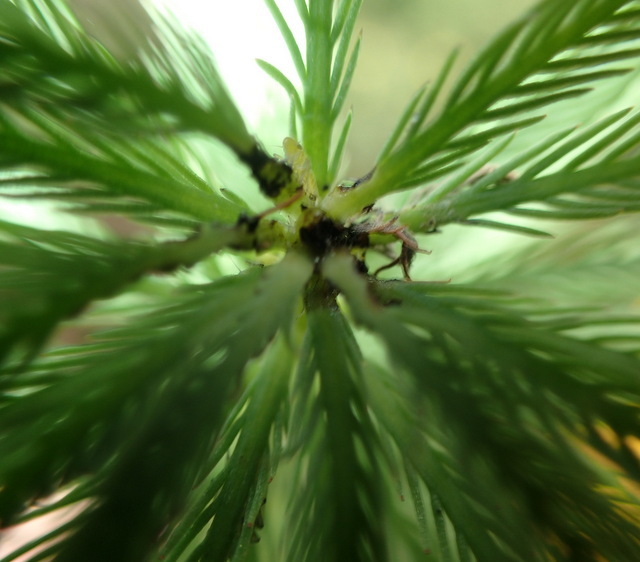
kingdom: Plantae
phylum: Tracheophyta
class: Magnoliopsida
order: Saxifragales
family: Haloragaceae
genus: Myriophyllum
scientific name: Myriophyllum aquaticum
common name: Parrot's feather
